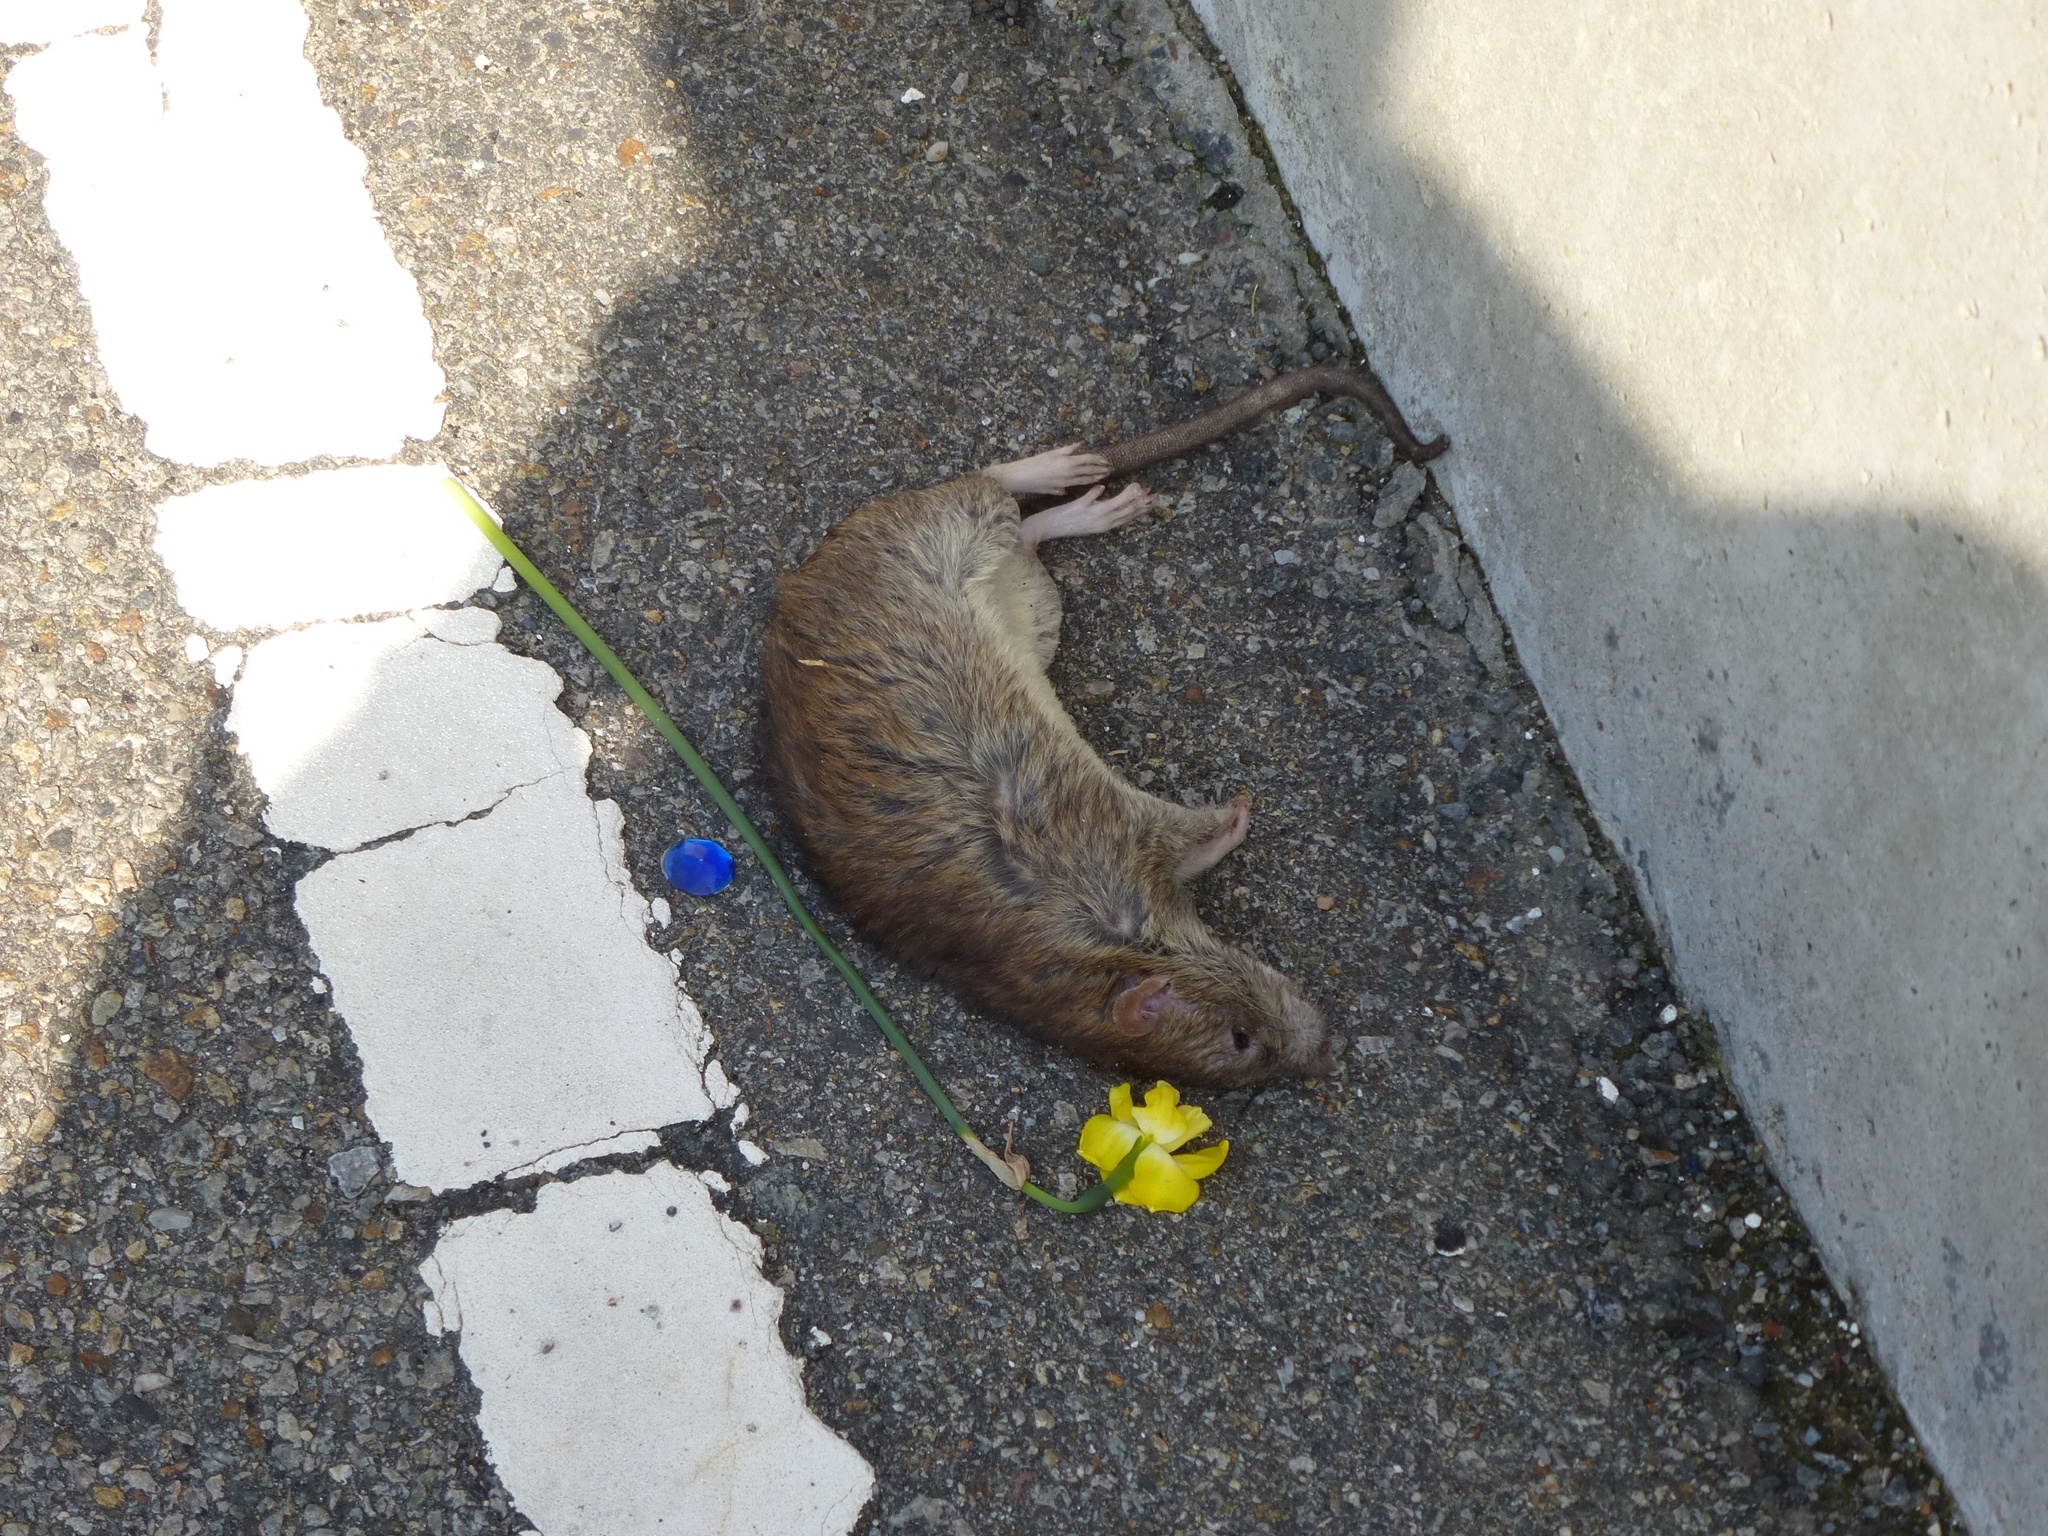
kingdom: Animalia
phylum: Chordata
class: Mammalia
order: Rodentia
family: Muridae
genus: Rattus
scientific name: Rattus norvegicus
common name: Brown rat
